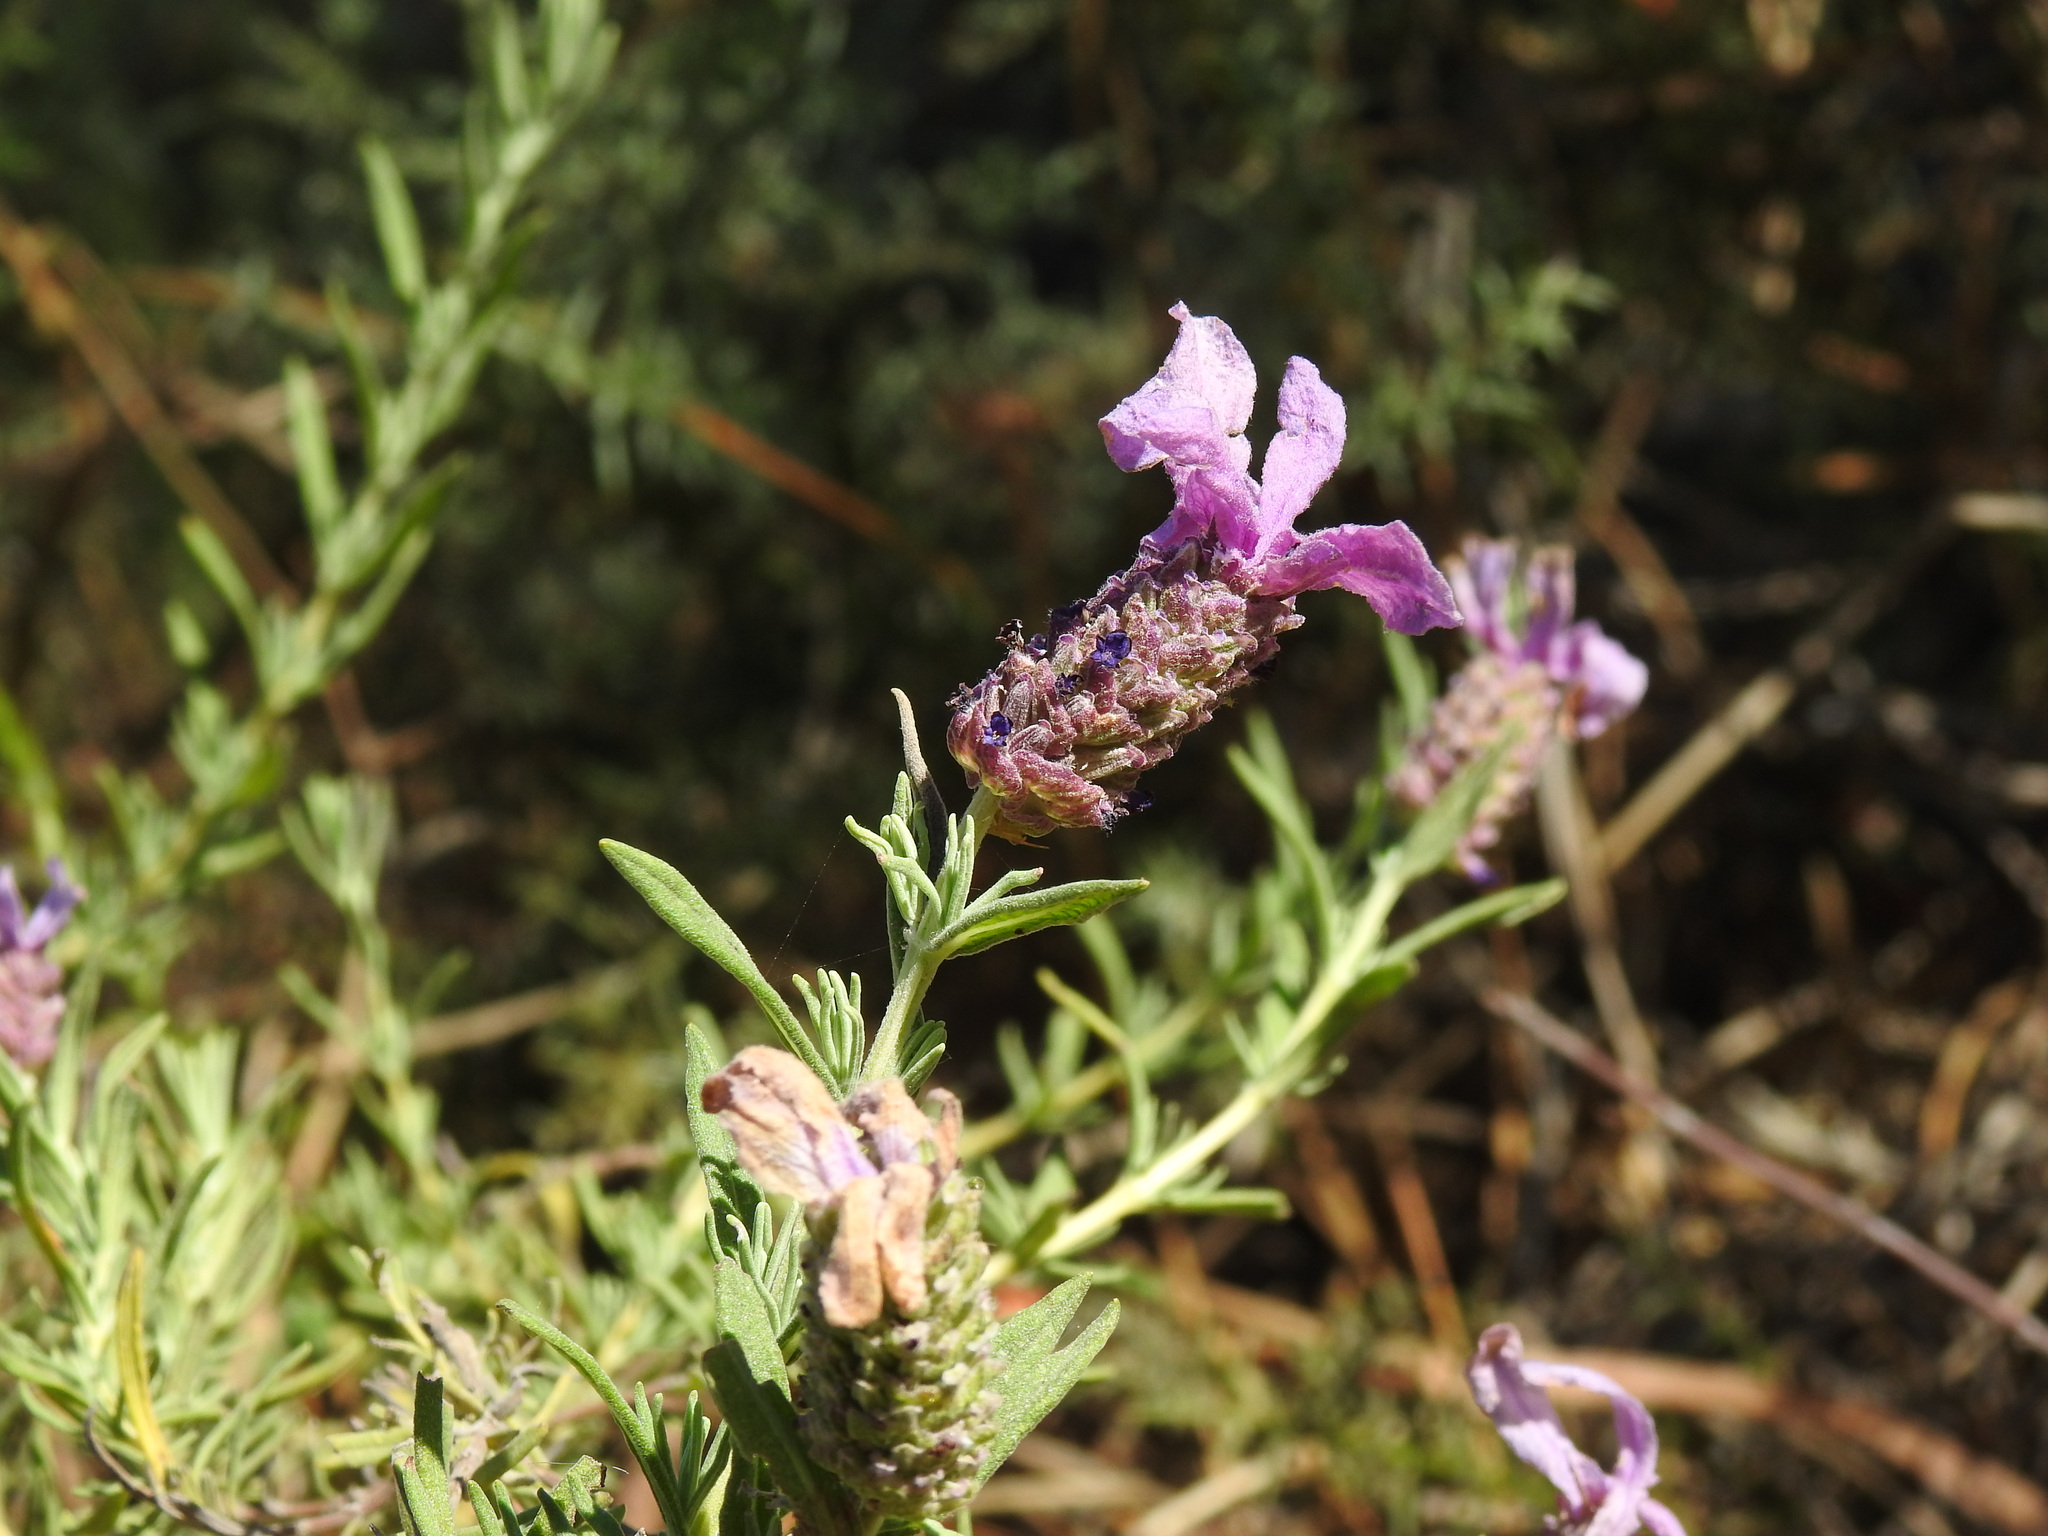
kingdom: Plantae
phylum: Tracheophyta
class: Magnoliopsida
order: Lamiales
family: Lamiaceae
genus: Lavandula
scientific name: Lavandula stoechas
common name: French lavender
